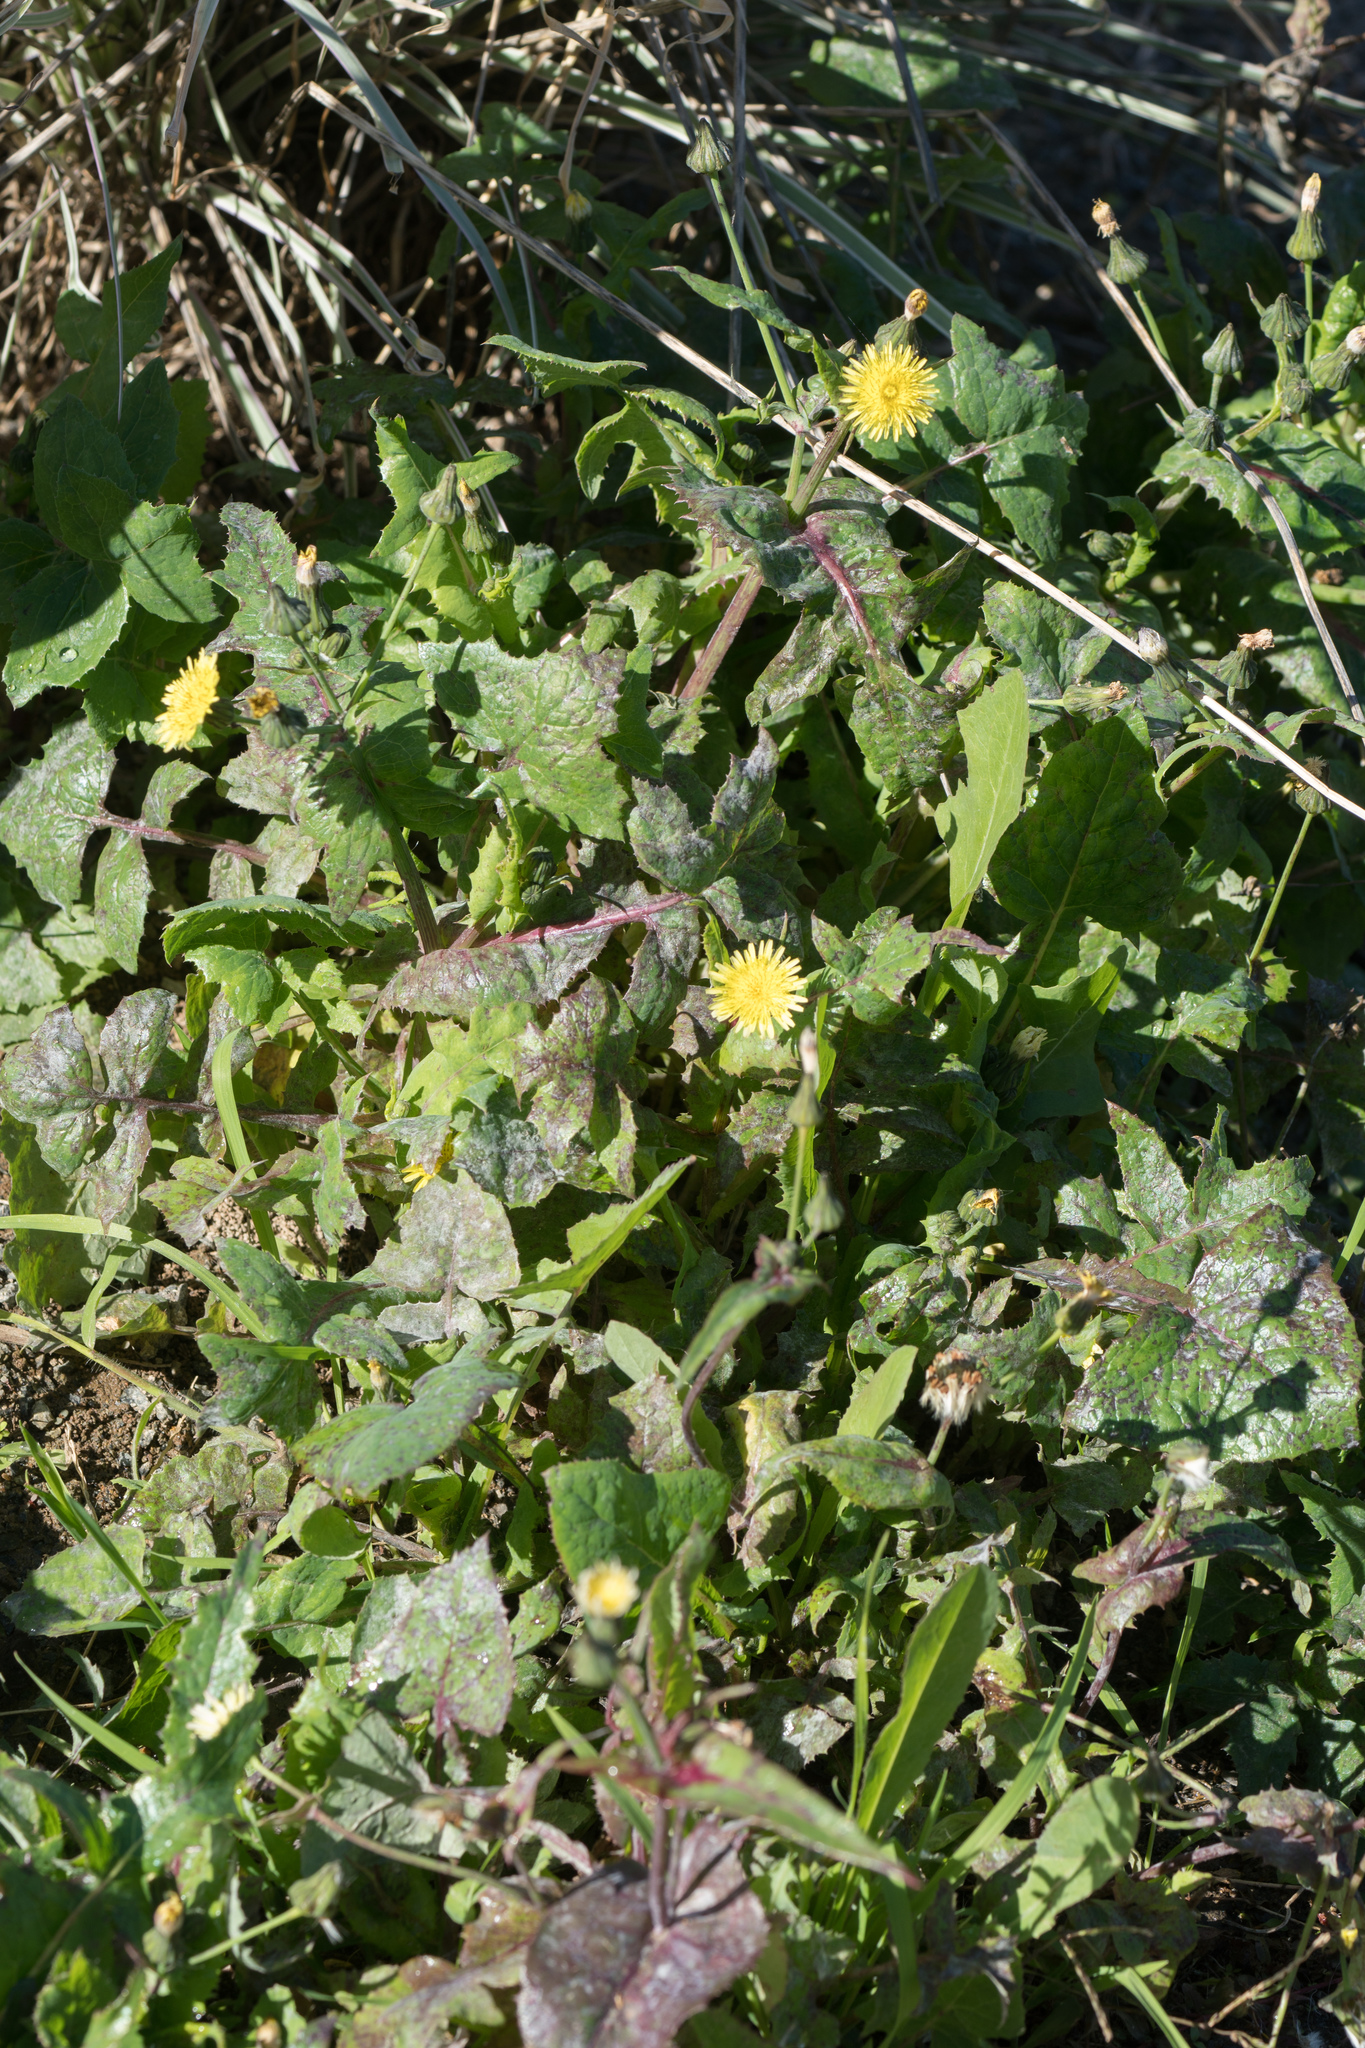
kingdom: Plantae
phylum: Tracheophyta
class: Magnoliopsida
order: Asterales
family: Asteraceae
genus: Sonchus
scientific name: Sonchus oleraceus
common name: Common sowthistle
